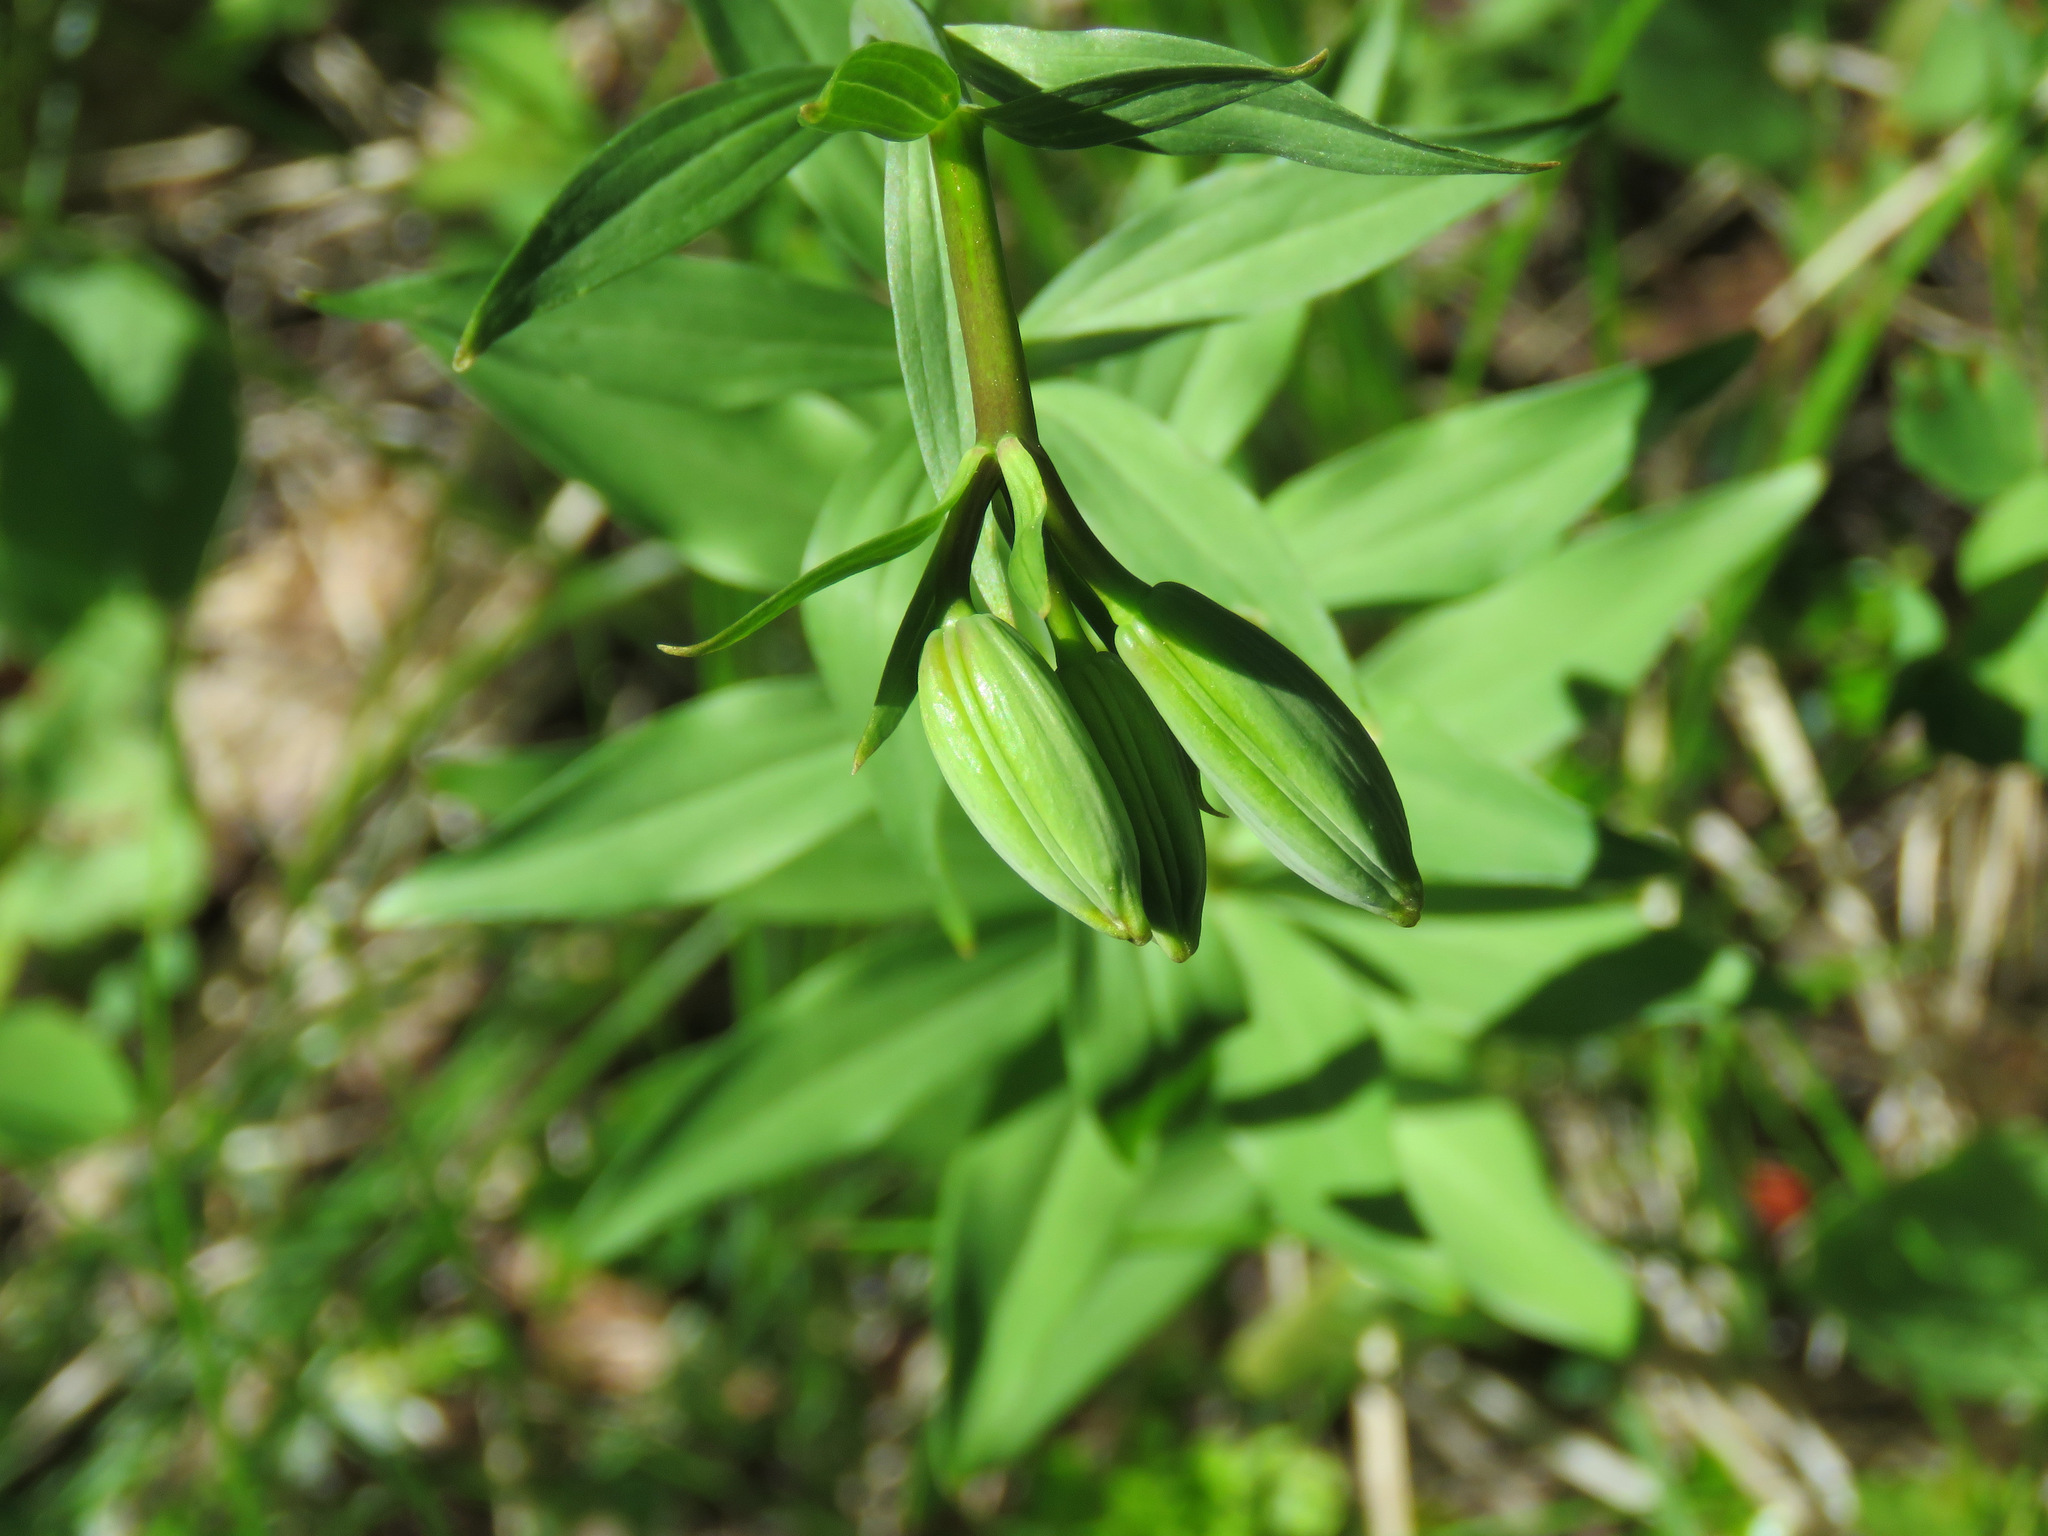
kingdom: Plantae
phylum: Tracheophyta
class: Liliopsida
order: Liliales
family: Liliaceae
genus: Lilium
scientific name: Lilium columbianum
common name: Columbia lily
